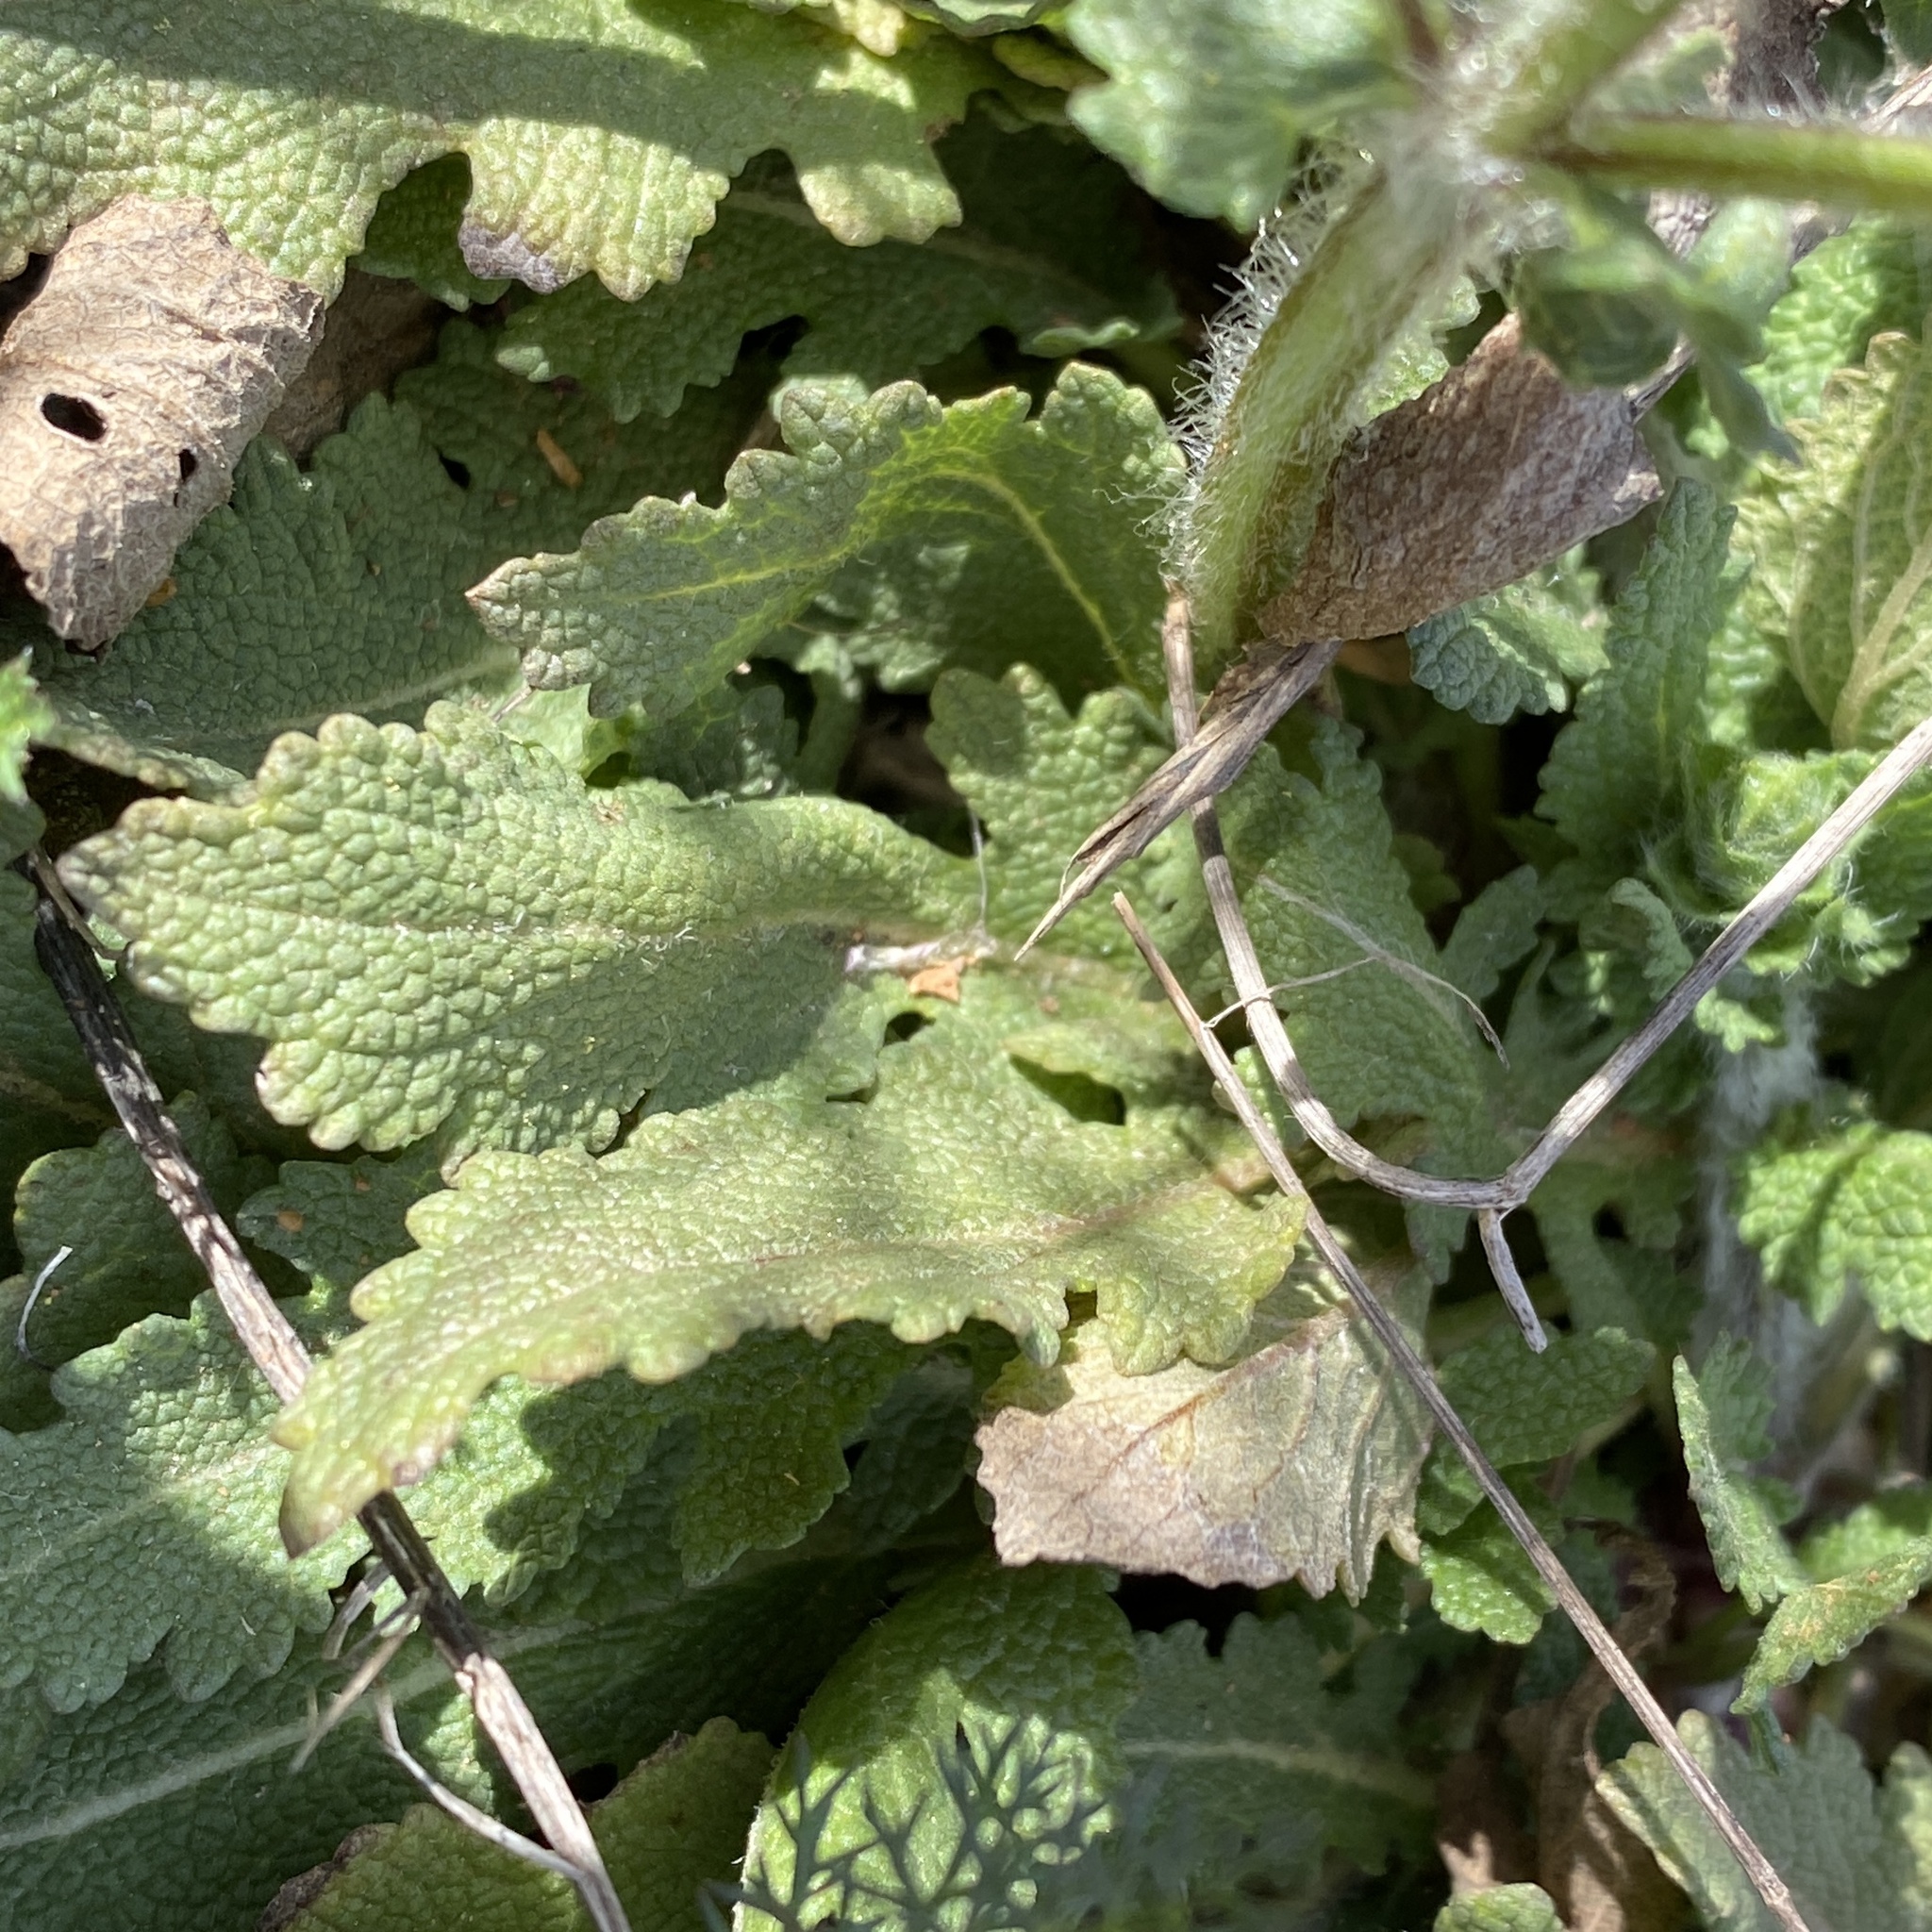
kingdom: Plantae
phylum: Tracheophyta
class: Magnoliopsida
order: Lamiales
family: Lamiaceae
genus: Salvia
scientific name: Salvia verbenaca
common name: Wild clary
